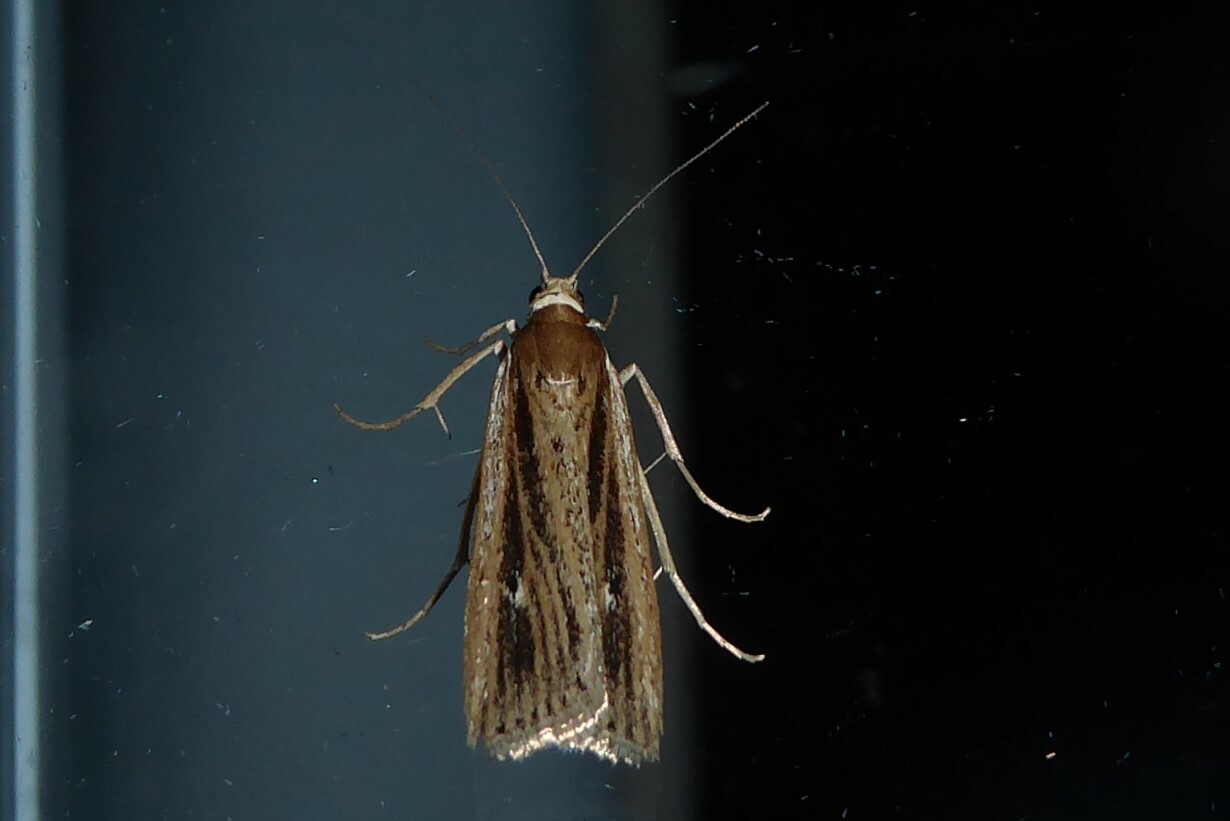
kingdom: Animalia
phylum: Arthropoda
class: Insecta
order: Lepidoptera
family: Crambidae
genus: Eudonia
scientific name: Eudonia sabulosella
